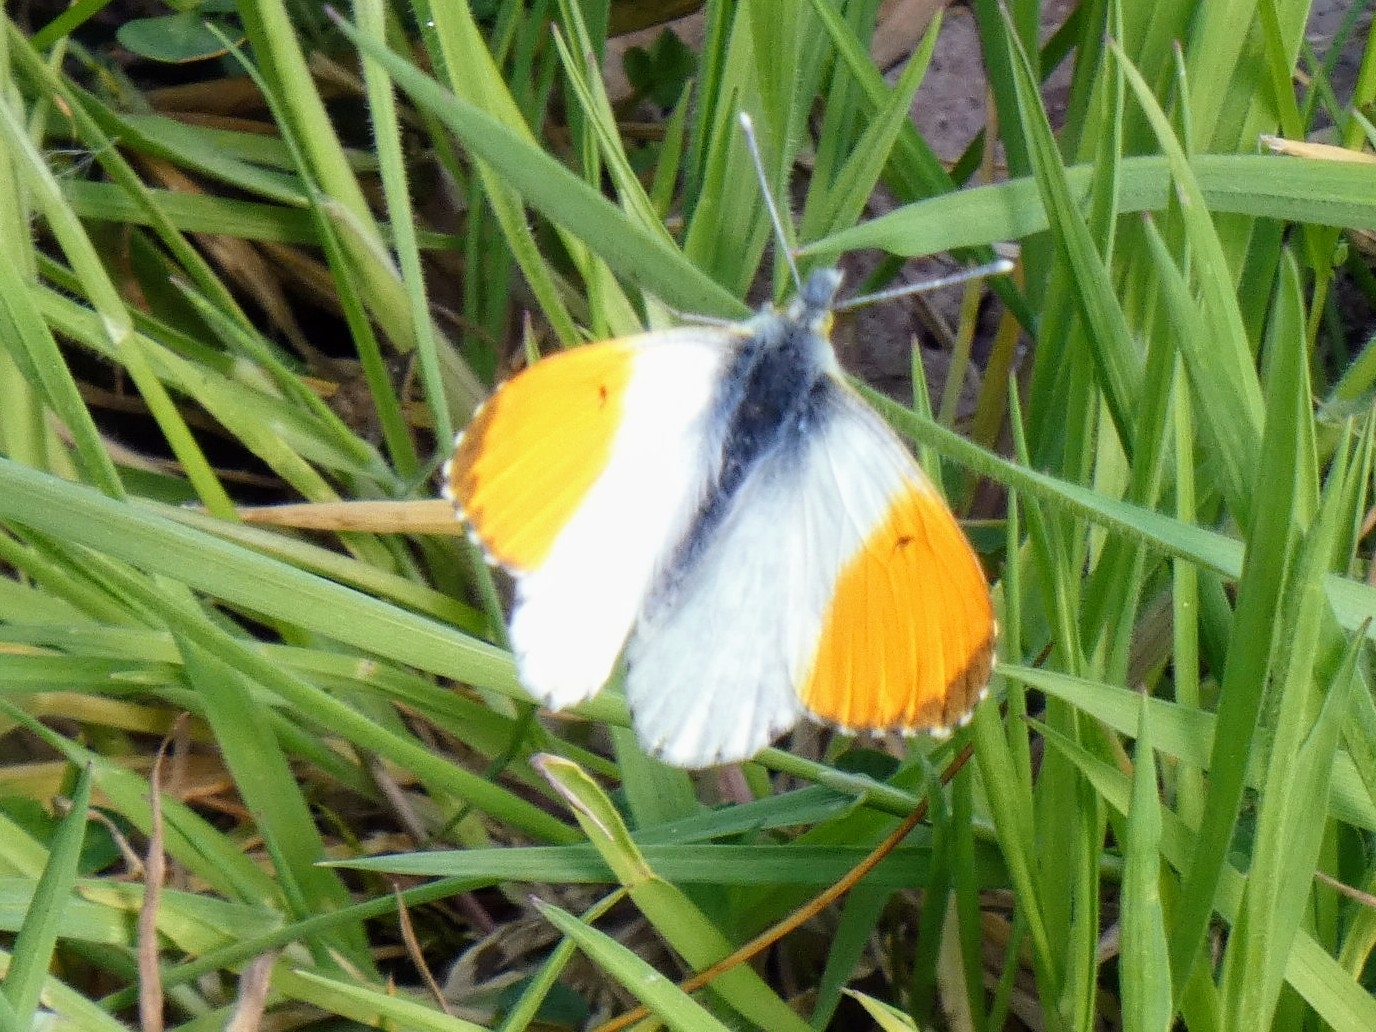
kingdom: Animalia
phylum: Arthropoda
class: Insecta
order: Lepidoptera
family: Pieridae
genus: Anthocharis
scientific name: Anthocharis cardamines
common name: Orange-tip
